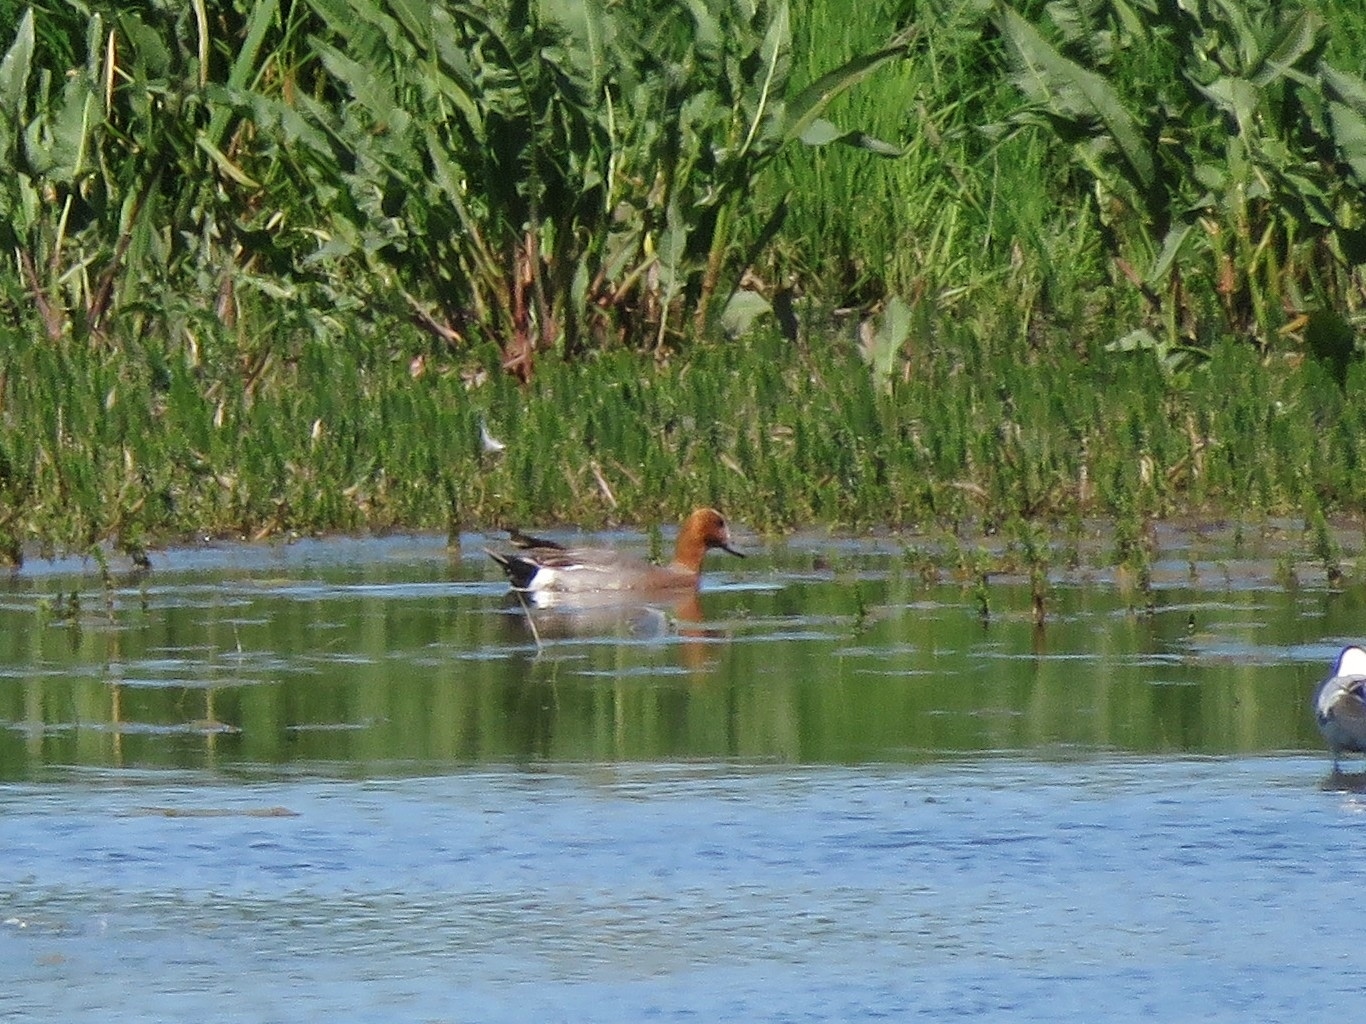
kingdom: Animalia
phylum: Chordata
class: Aves
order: Anseriformes
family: Anatidae
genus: Mareca
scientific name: Mareca penelope
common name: Eurasian wigeon
